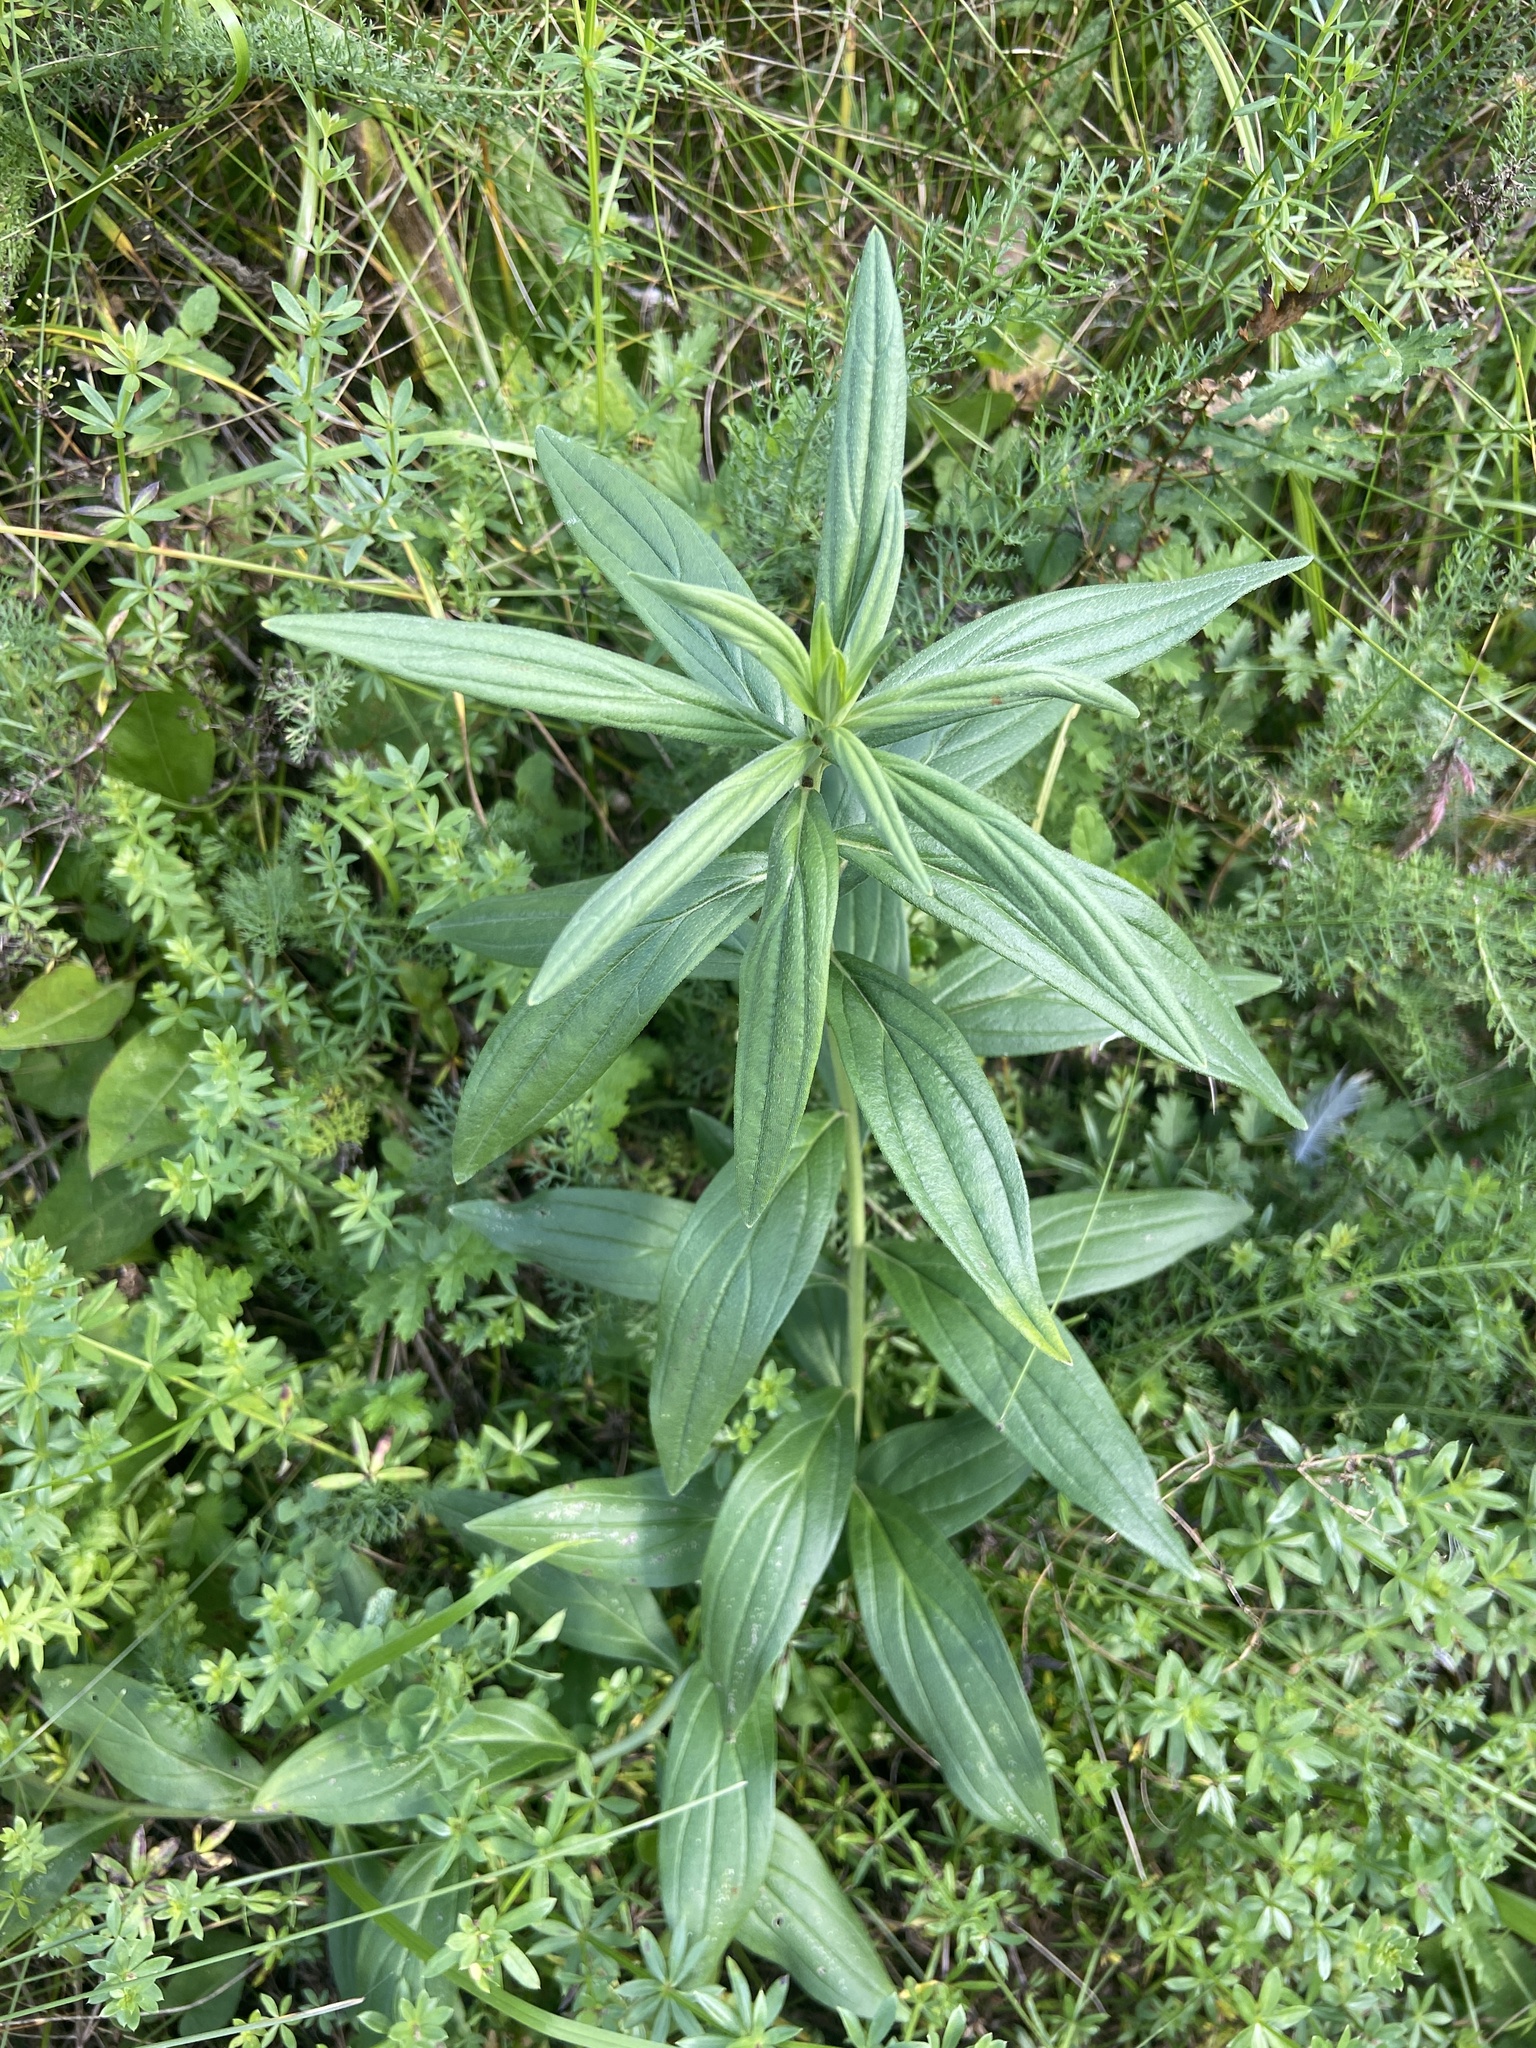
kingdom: Plantae
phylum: Tracheophyta
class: Magnoliopsida
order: Boraginales
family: Boraginaceae
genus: Lithospermum
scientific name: Lithospermum officinale
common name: Common gromwell
